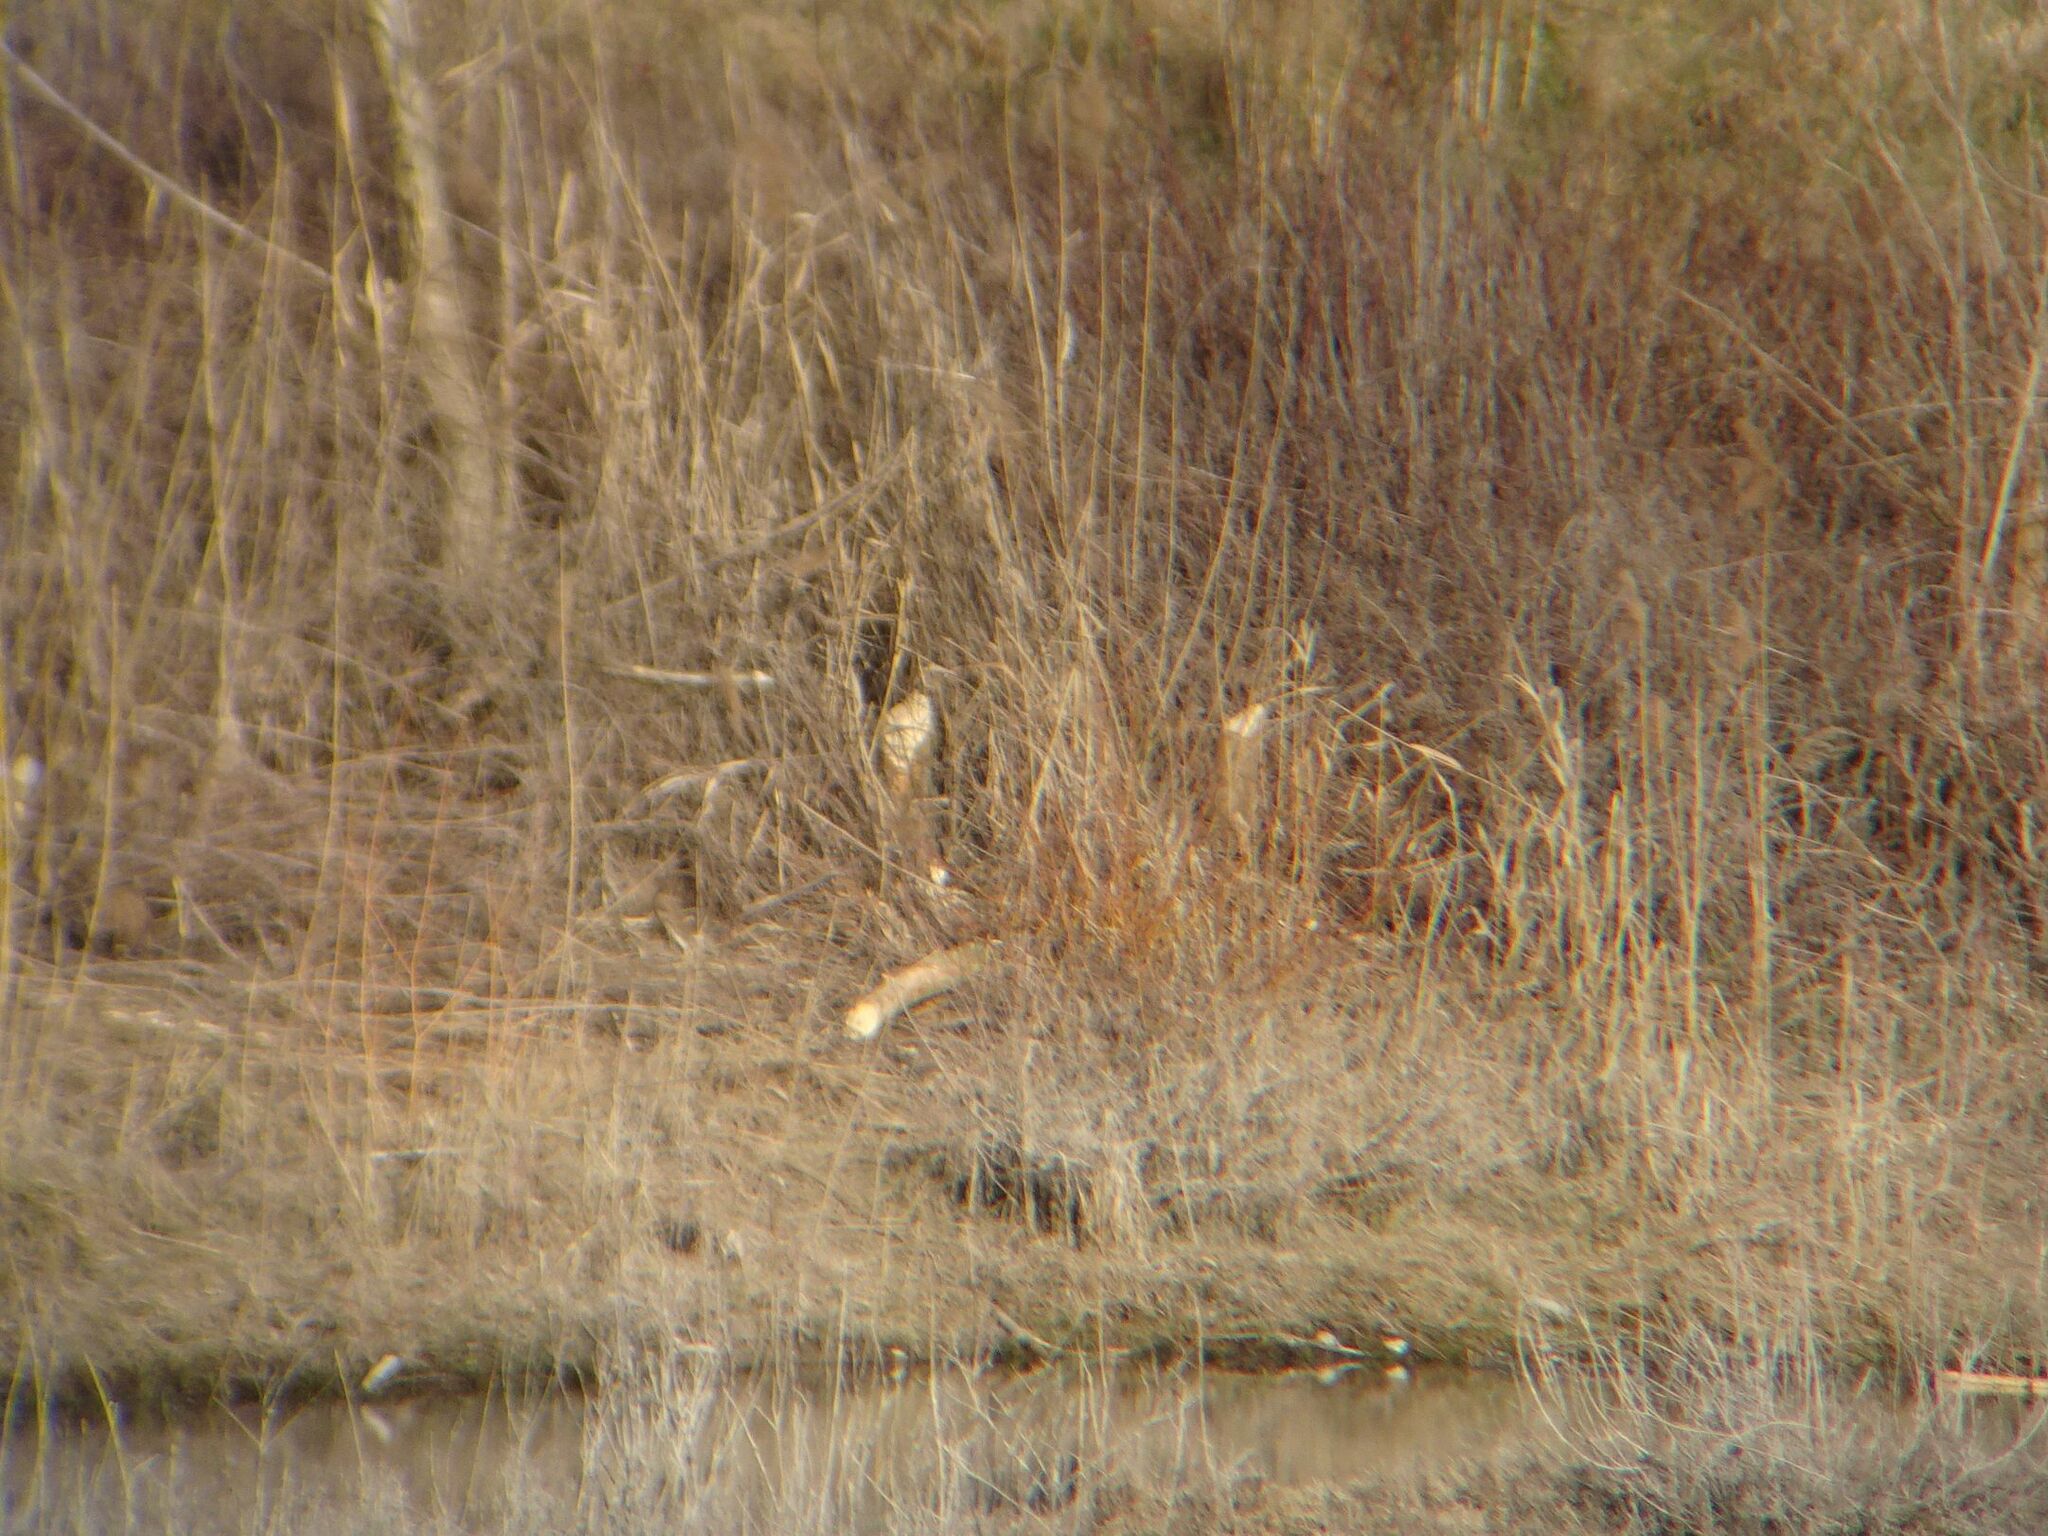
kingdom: Animalia
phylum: Chordata
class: Mammalia
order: Rodentia
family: Castoridae
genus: Castor
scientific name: Castor fiber
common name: Eurasian beaver
